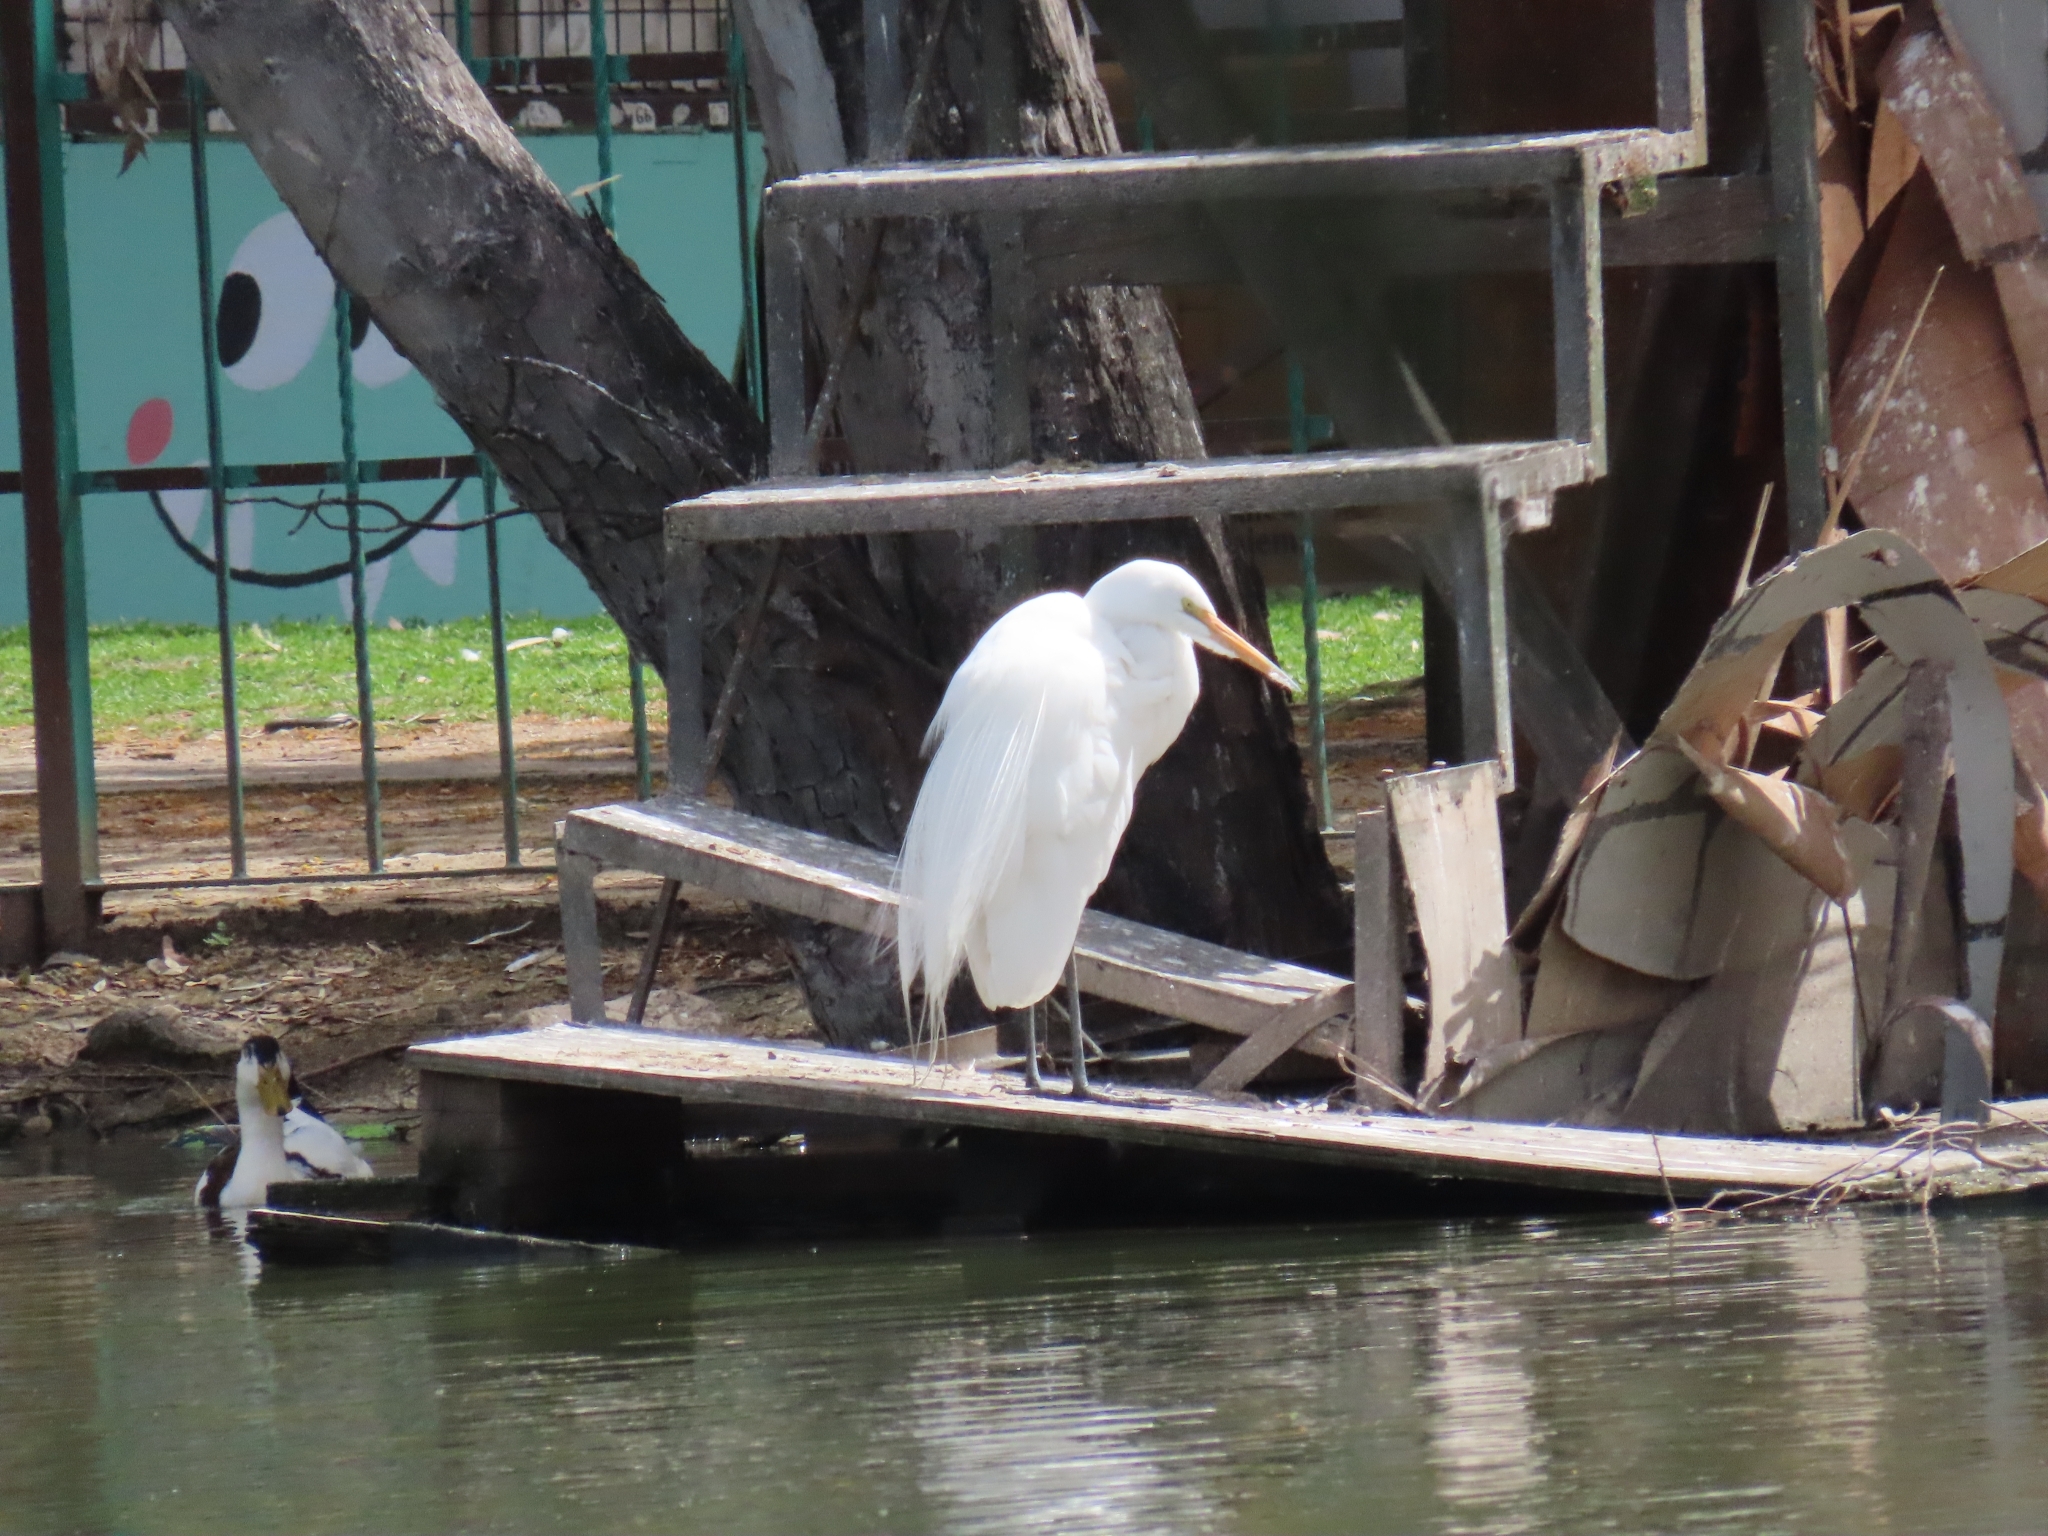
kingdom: Animalia
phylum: Chordata
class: Aves
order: Pelecaniformes
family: Ardeidae
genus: Ardea
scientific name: Ardea alba
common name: Great egret
